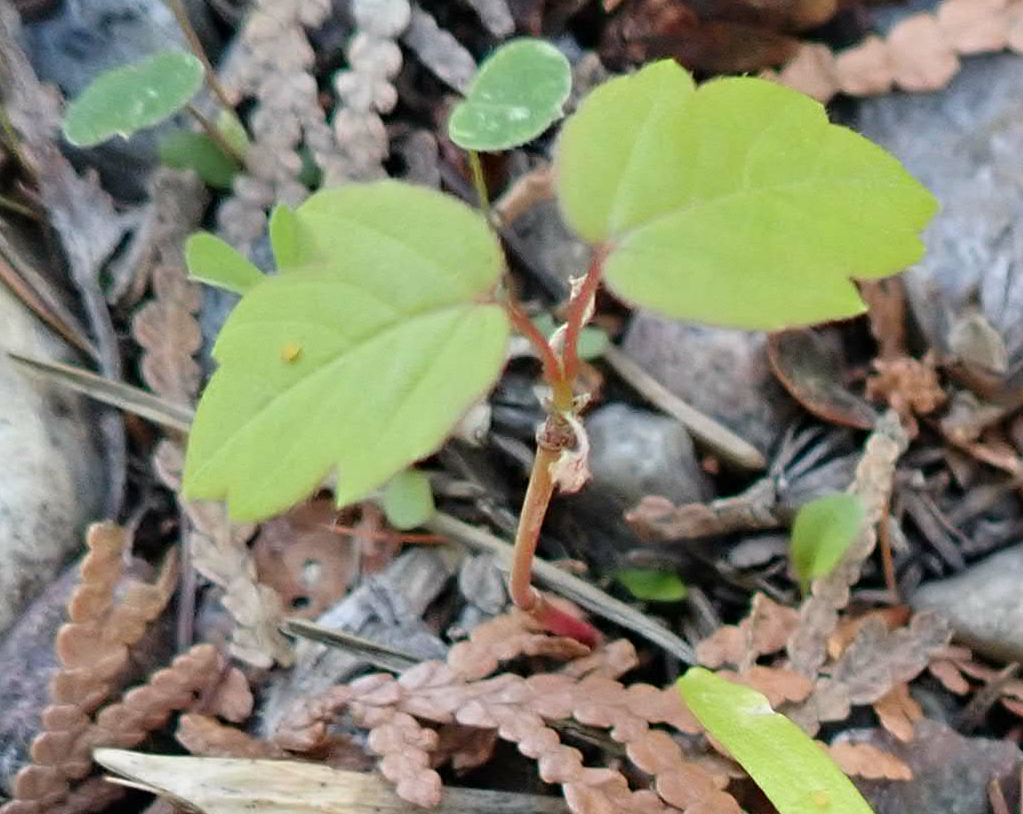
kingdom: Plantae
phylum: Tracheophyta
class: Magnoliopsida
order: Sapindales
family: Sapindaceae
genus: Acer
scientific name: Acer negundo
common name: Ashleaf maple
